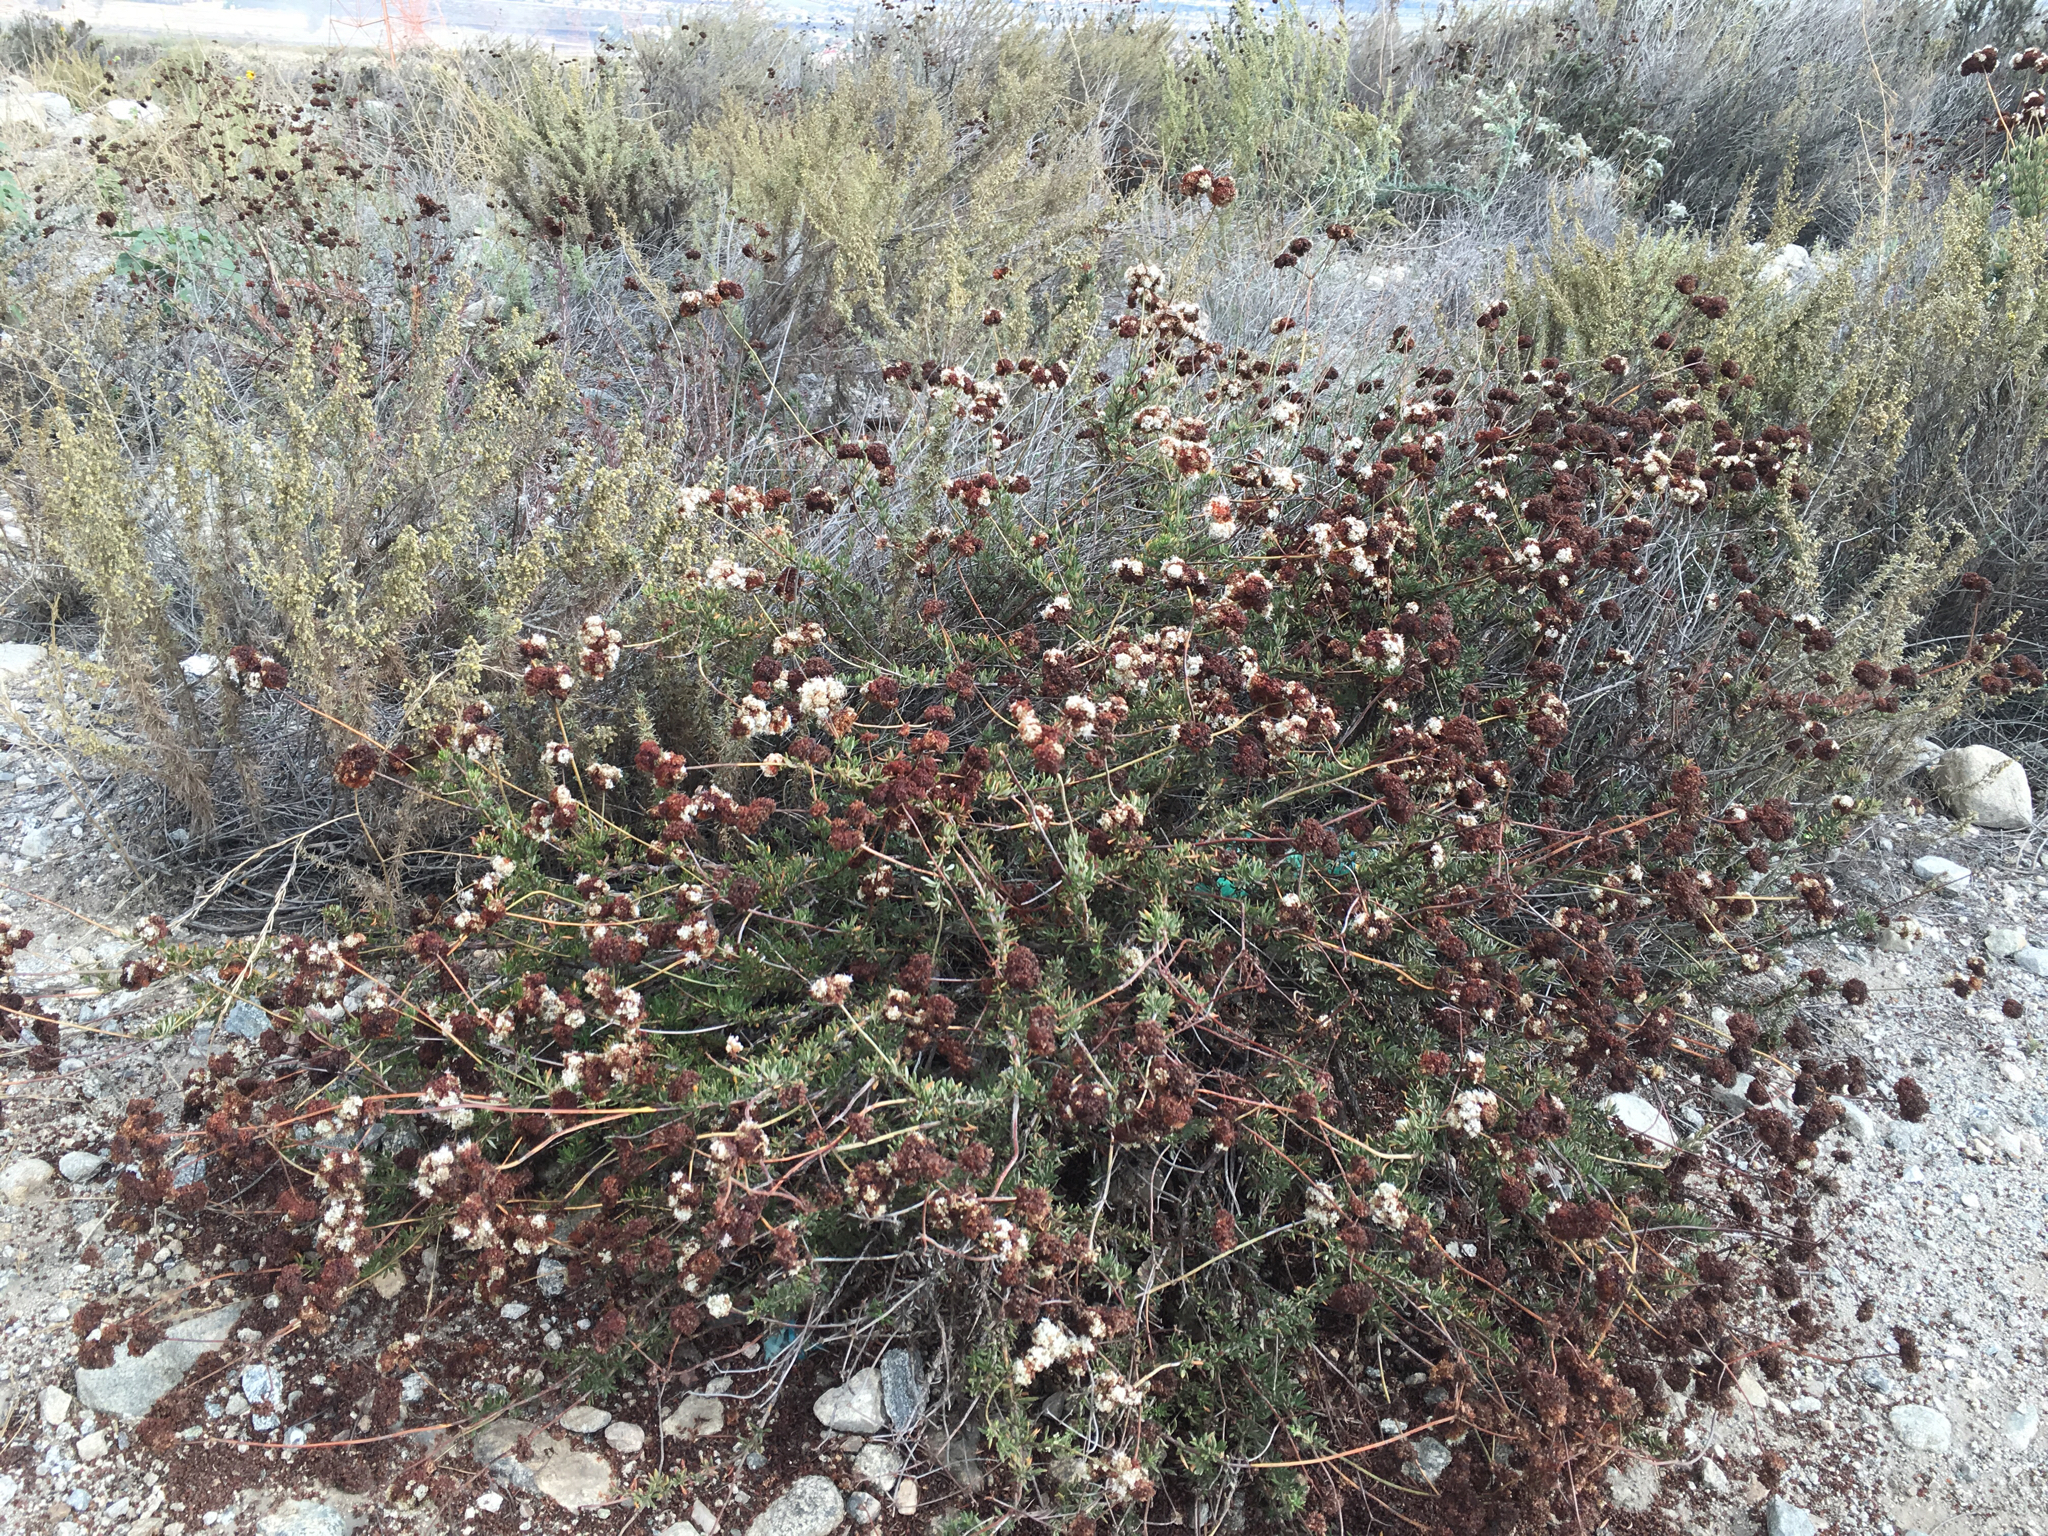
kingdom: Plantae
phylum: Tracheophyta
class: Magnoliopsida
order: Caryophyllales
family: Polygonaceae
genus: Eriogonum
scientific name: Eriogonum fasciculatum
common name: California wild buckwheat
